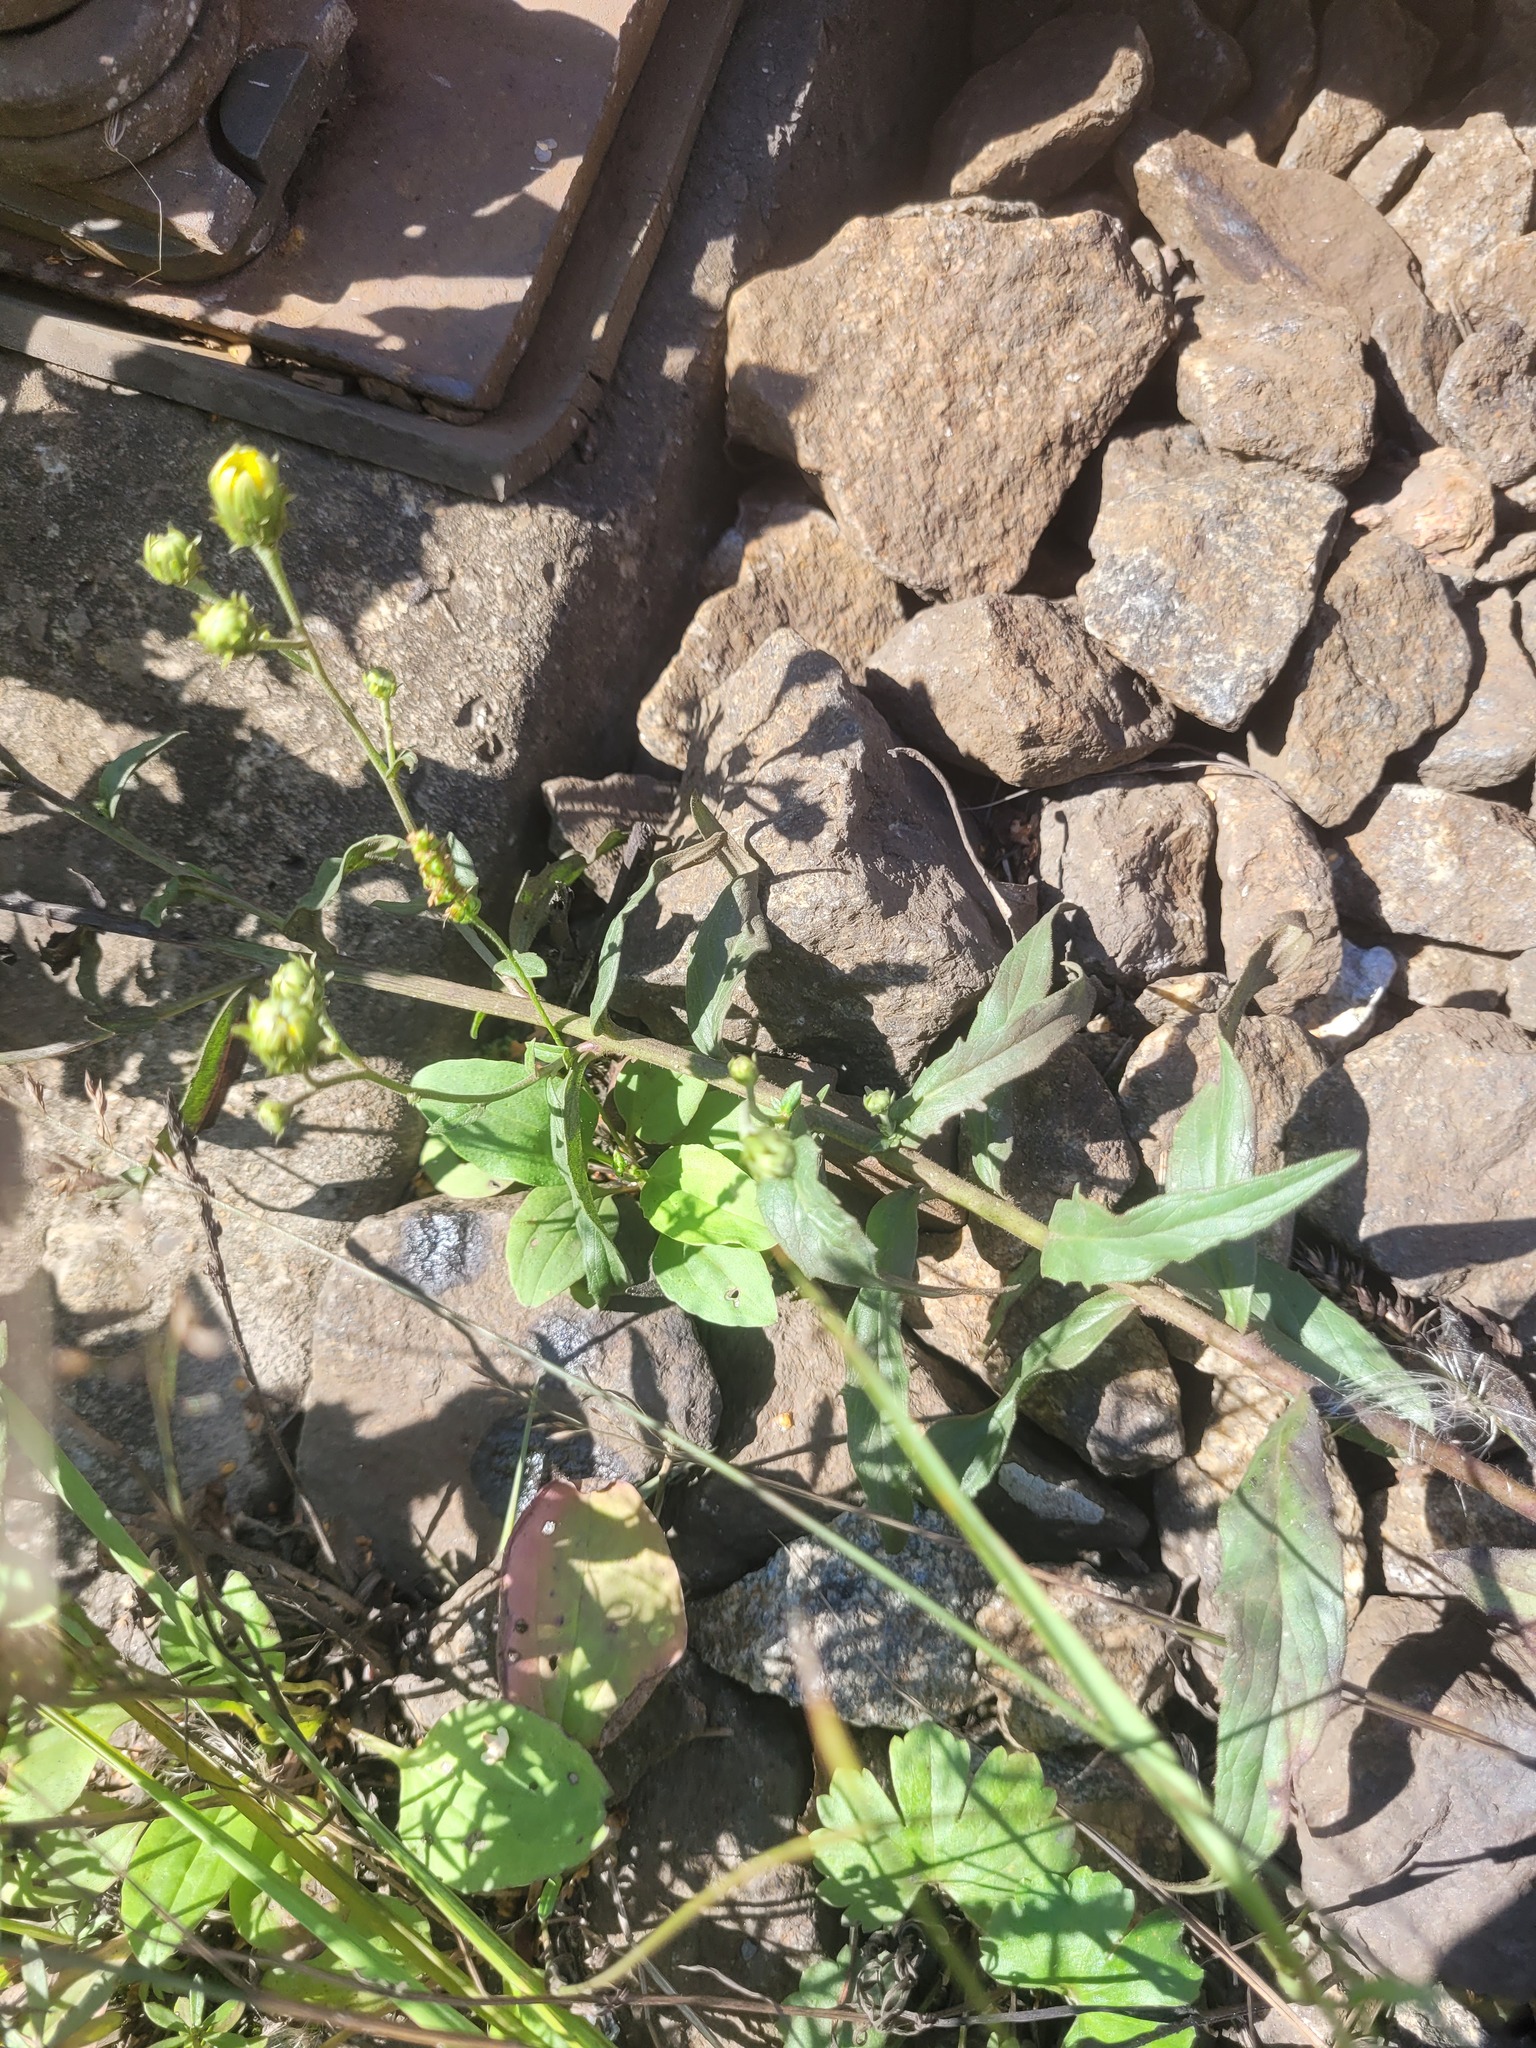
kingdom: Plantae
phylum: Tracheophyta
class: Magnoliopsida
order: Lamiales
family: Plantaginaceae
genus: Plantago
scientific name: Plantago major
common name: Common plantain
